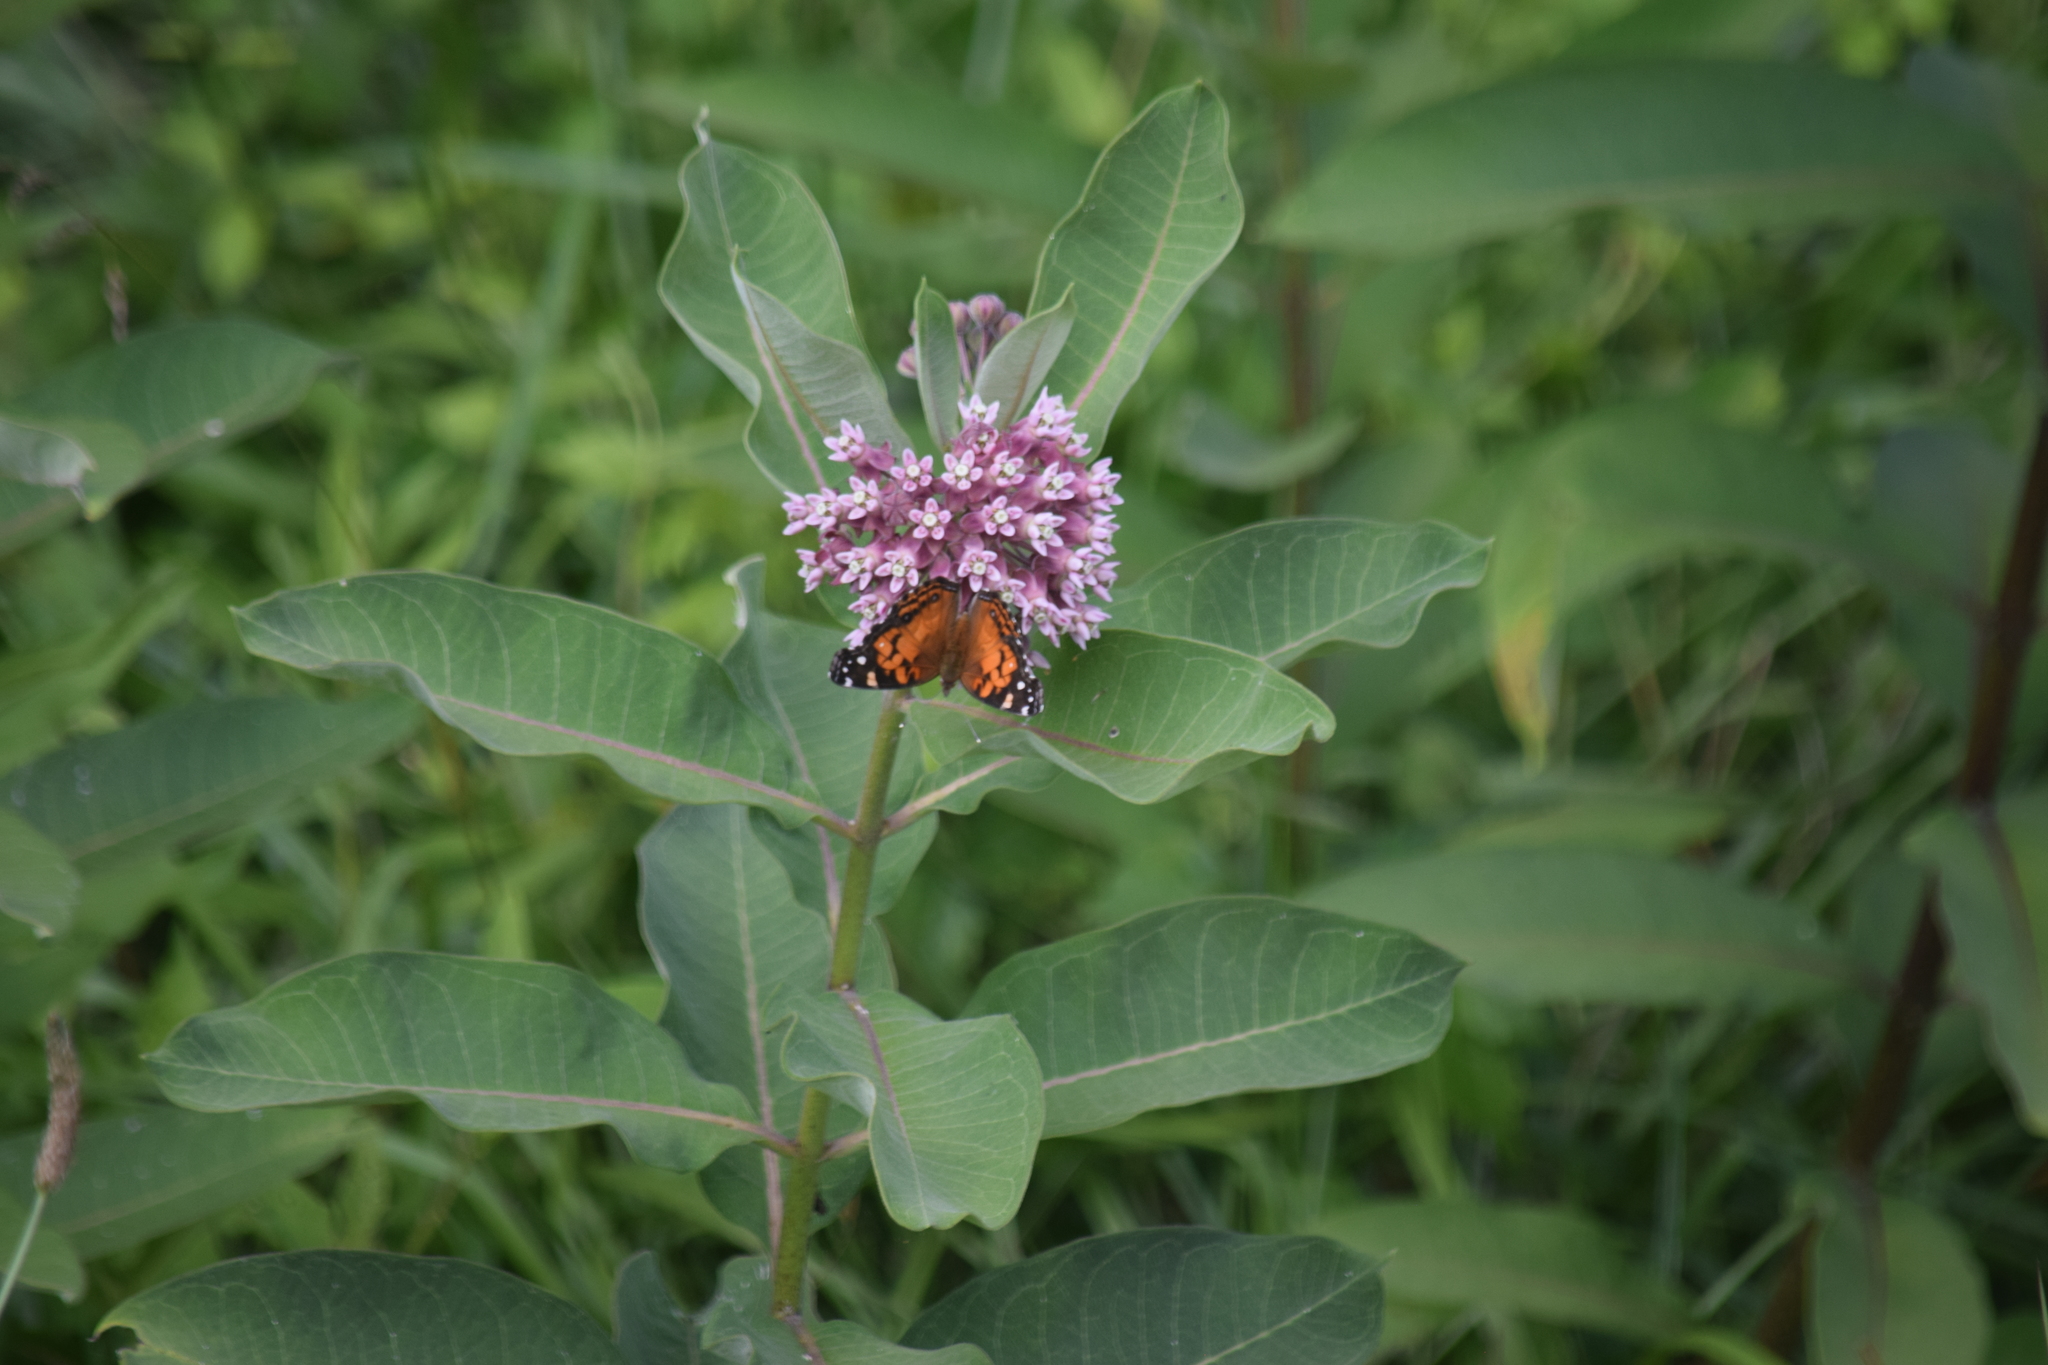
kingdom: Animalia
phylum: Arthropoda
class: Insecta
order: Lepidoptera
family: Nymphalidae
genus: Vanessa
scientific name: Vanessa virginiensis
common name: American lady
